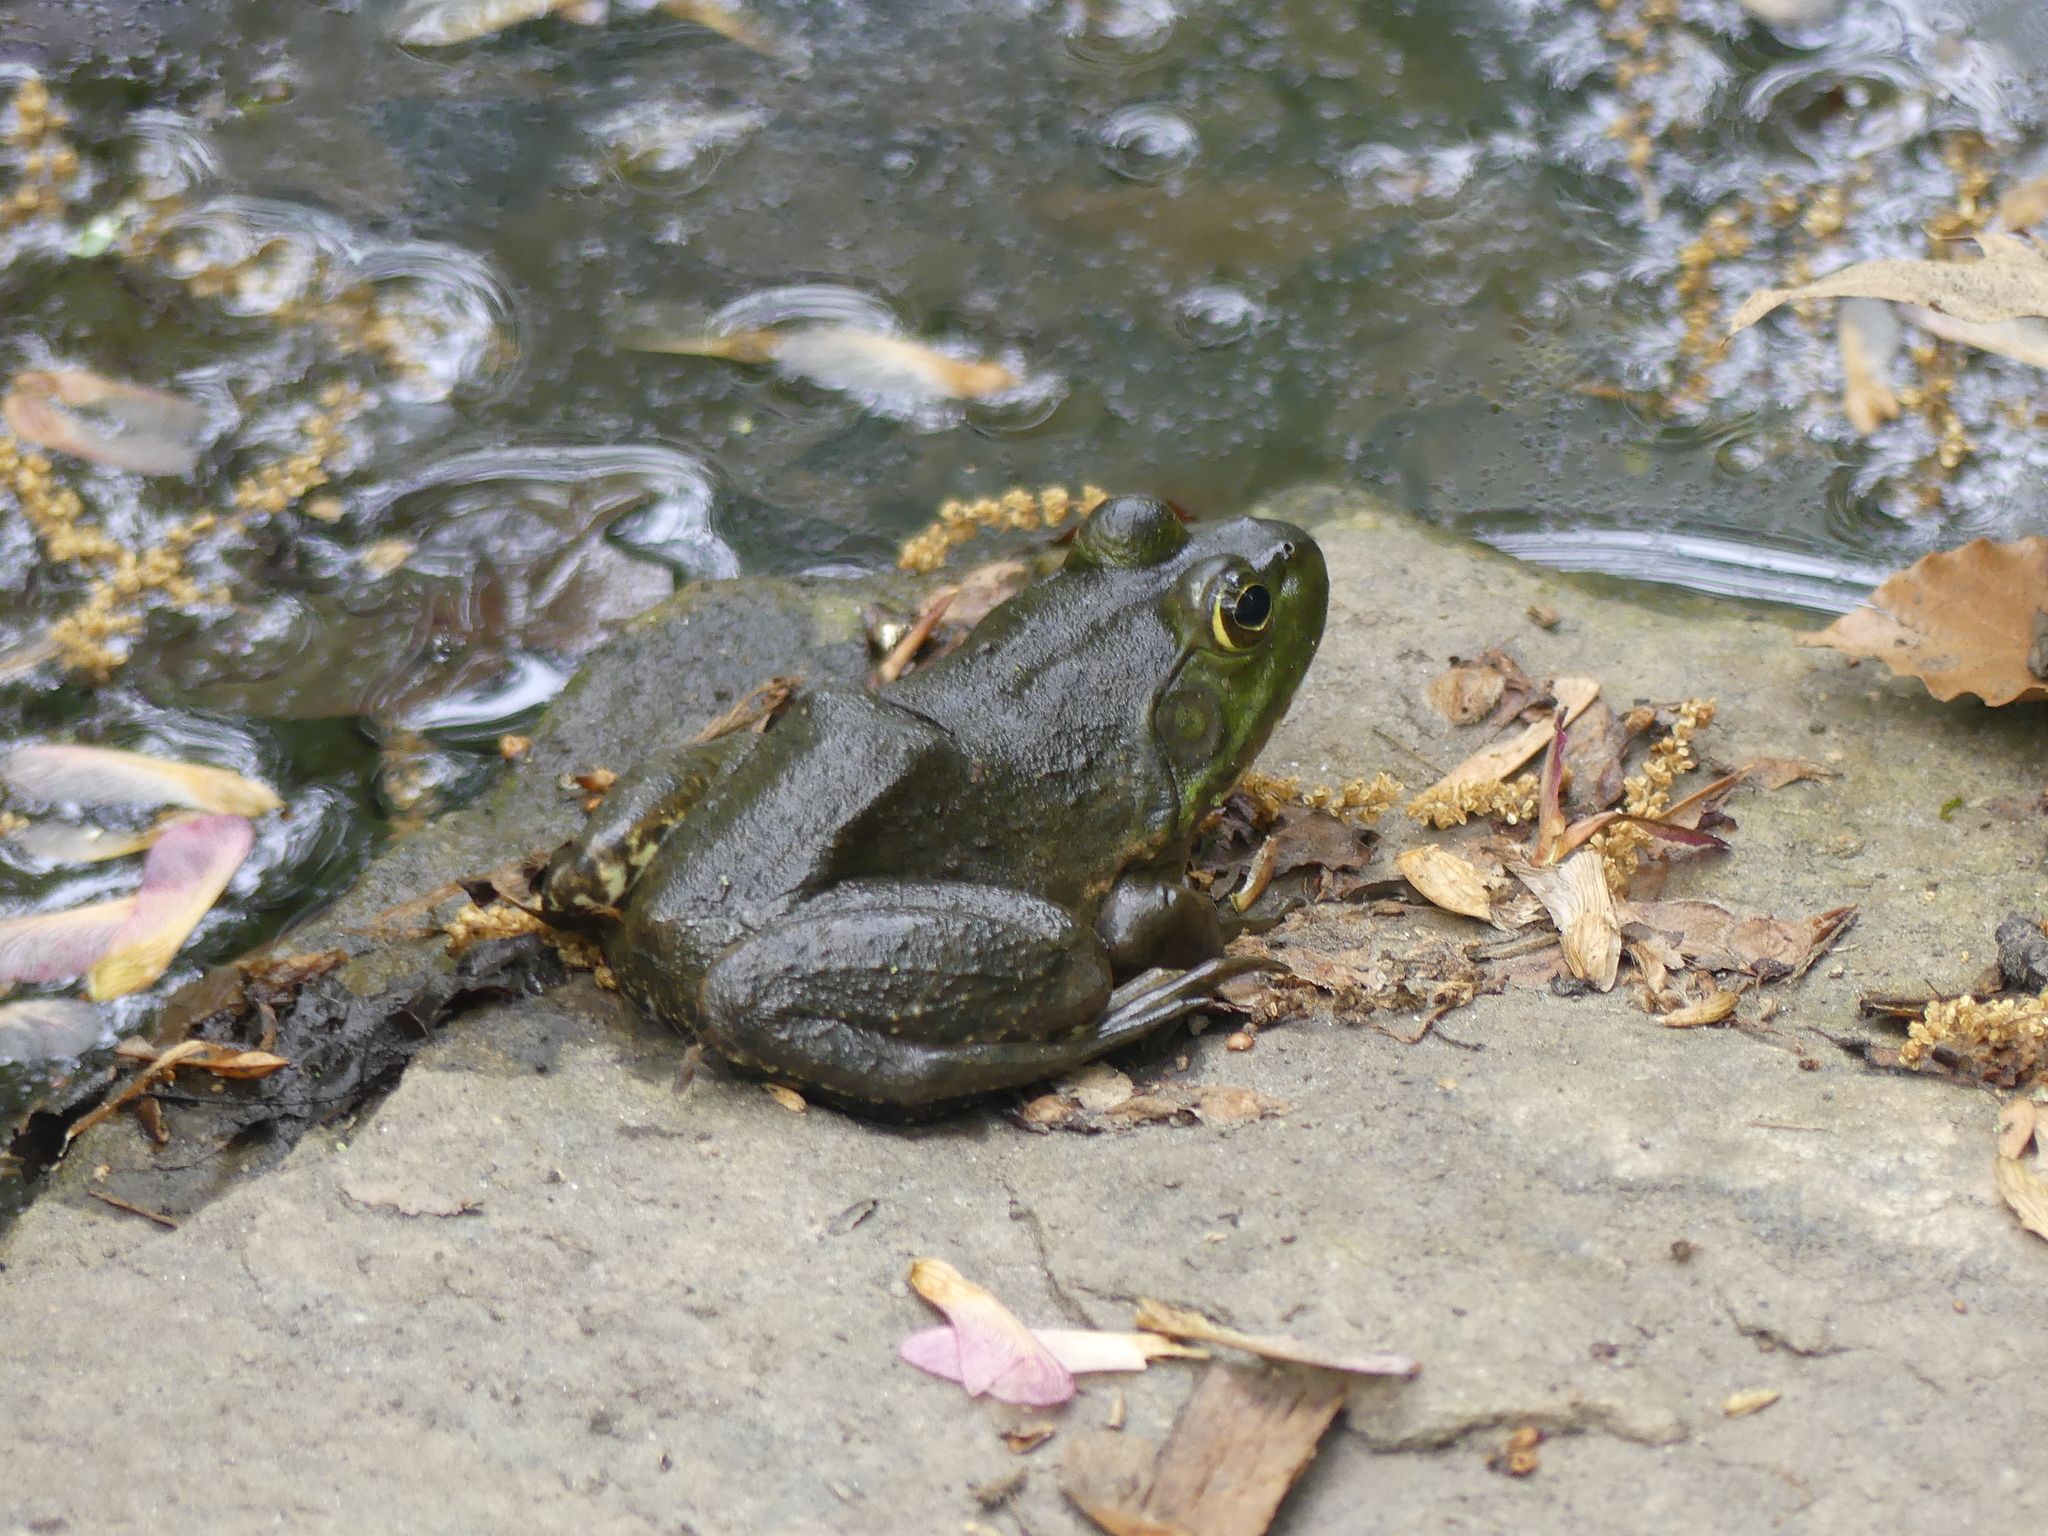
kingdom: Animalia
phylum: Chordata
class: Amphibia
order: Anura
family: Ranidae
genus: Lithobates
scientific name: Lithobates catesbeianus
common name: American bullfrog
